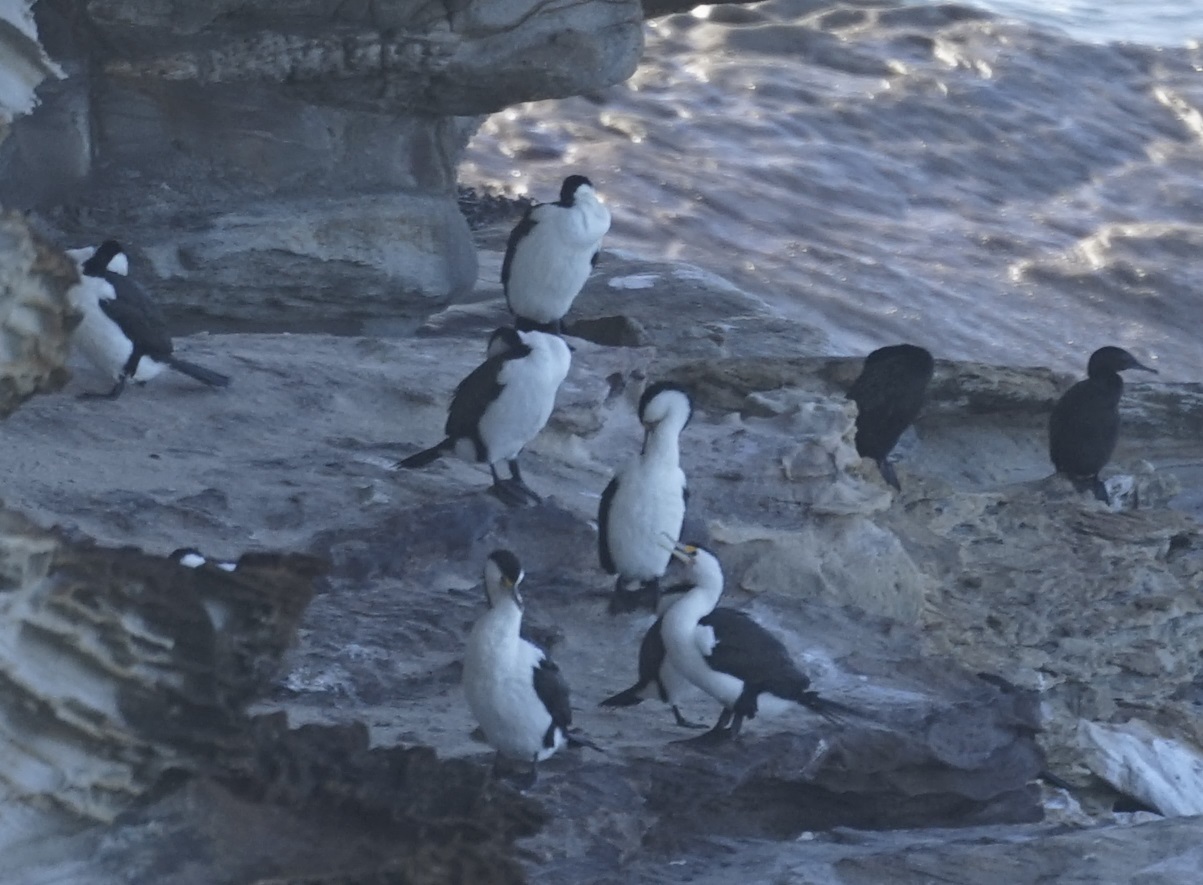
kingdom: Animalia
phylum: Chordata
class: Aves
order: Suliformes
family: Phalacrocoracidae
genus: Phalacrocorax
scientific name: Phalacrocorax varius
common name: Pied cormorant
